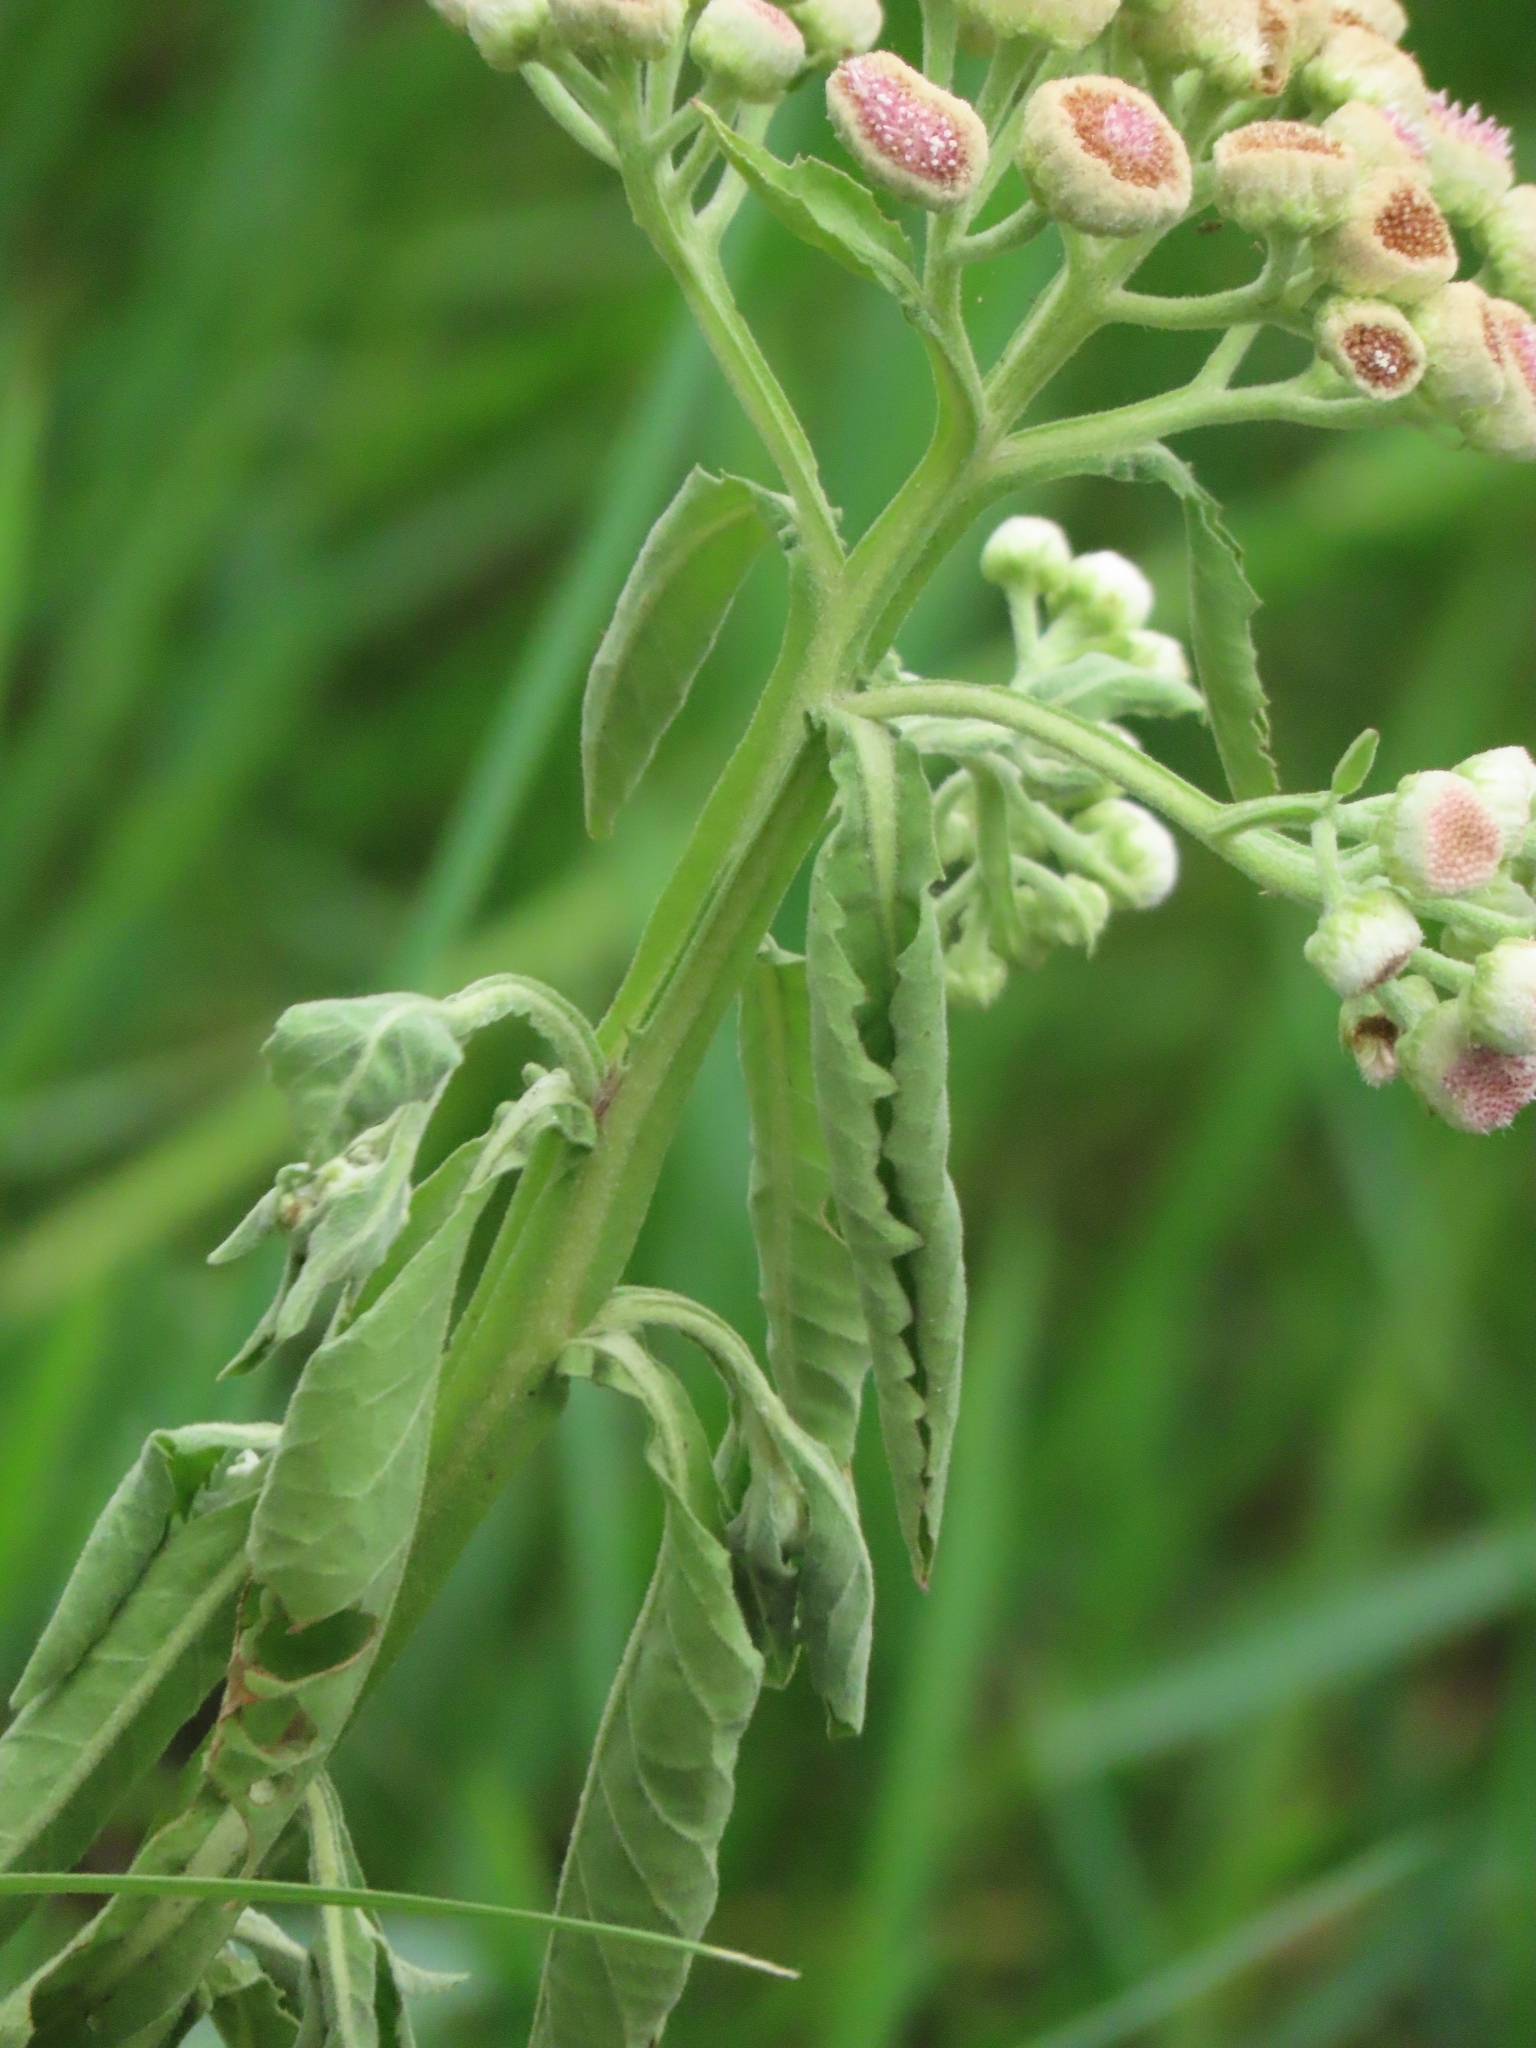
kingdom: Plantae
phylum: Tracheophyta
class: Magnoliopsida
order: Asterales
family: Asteraceae
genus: Pluchea
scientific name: Pluchea sagittalis
